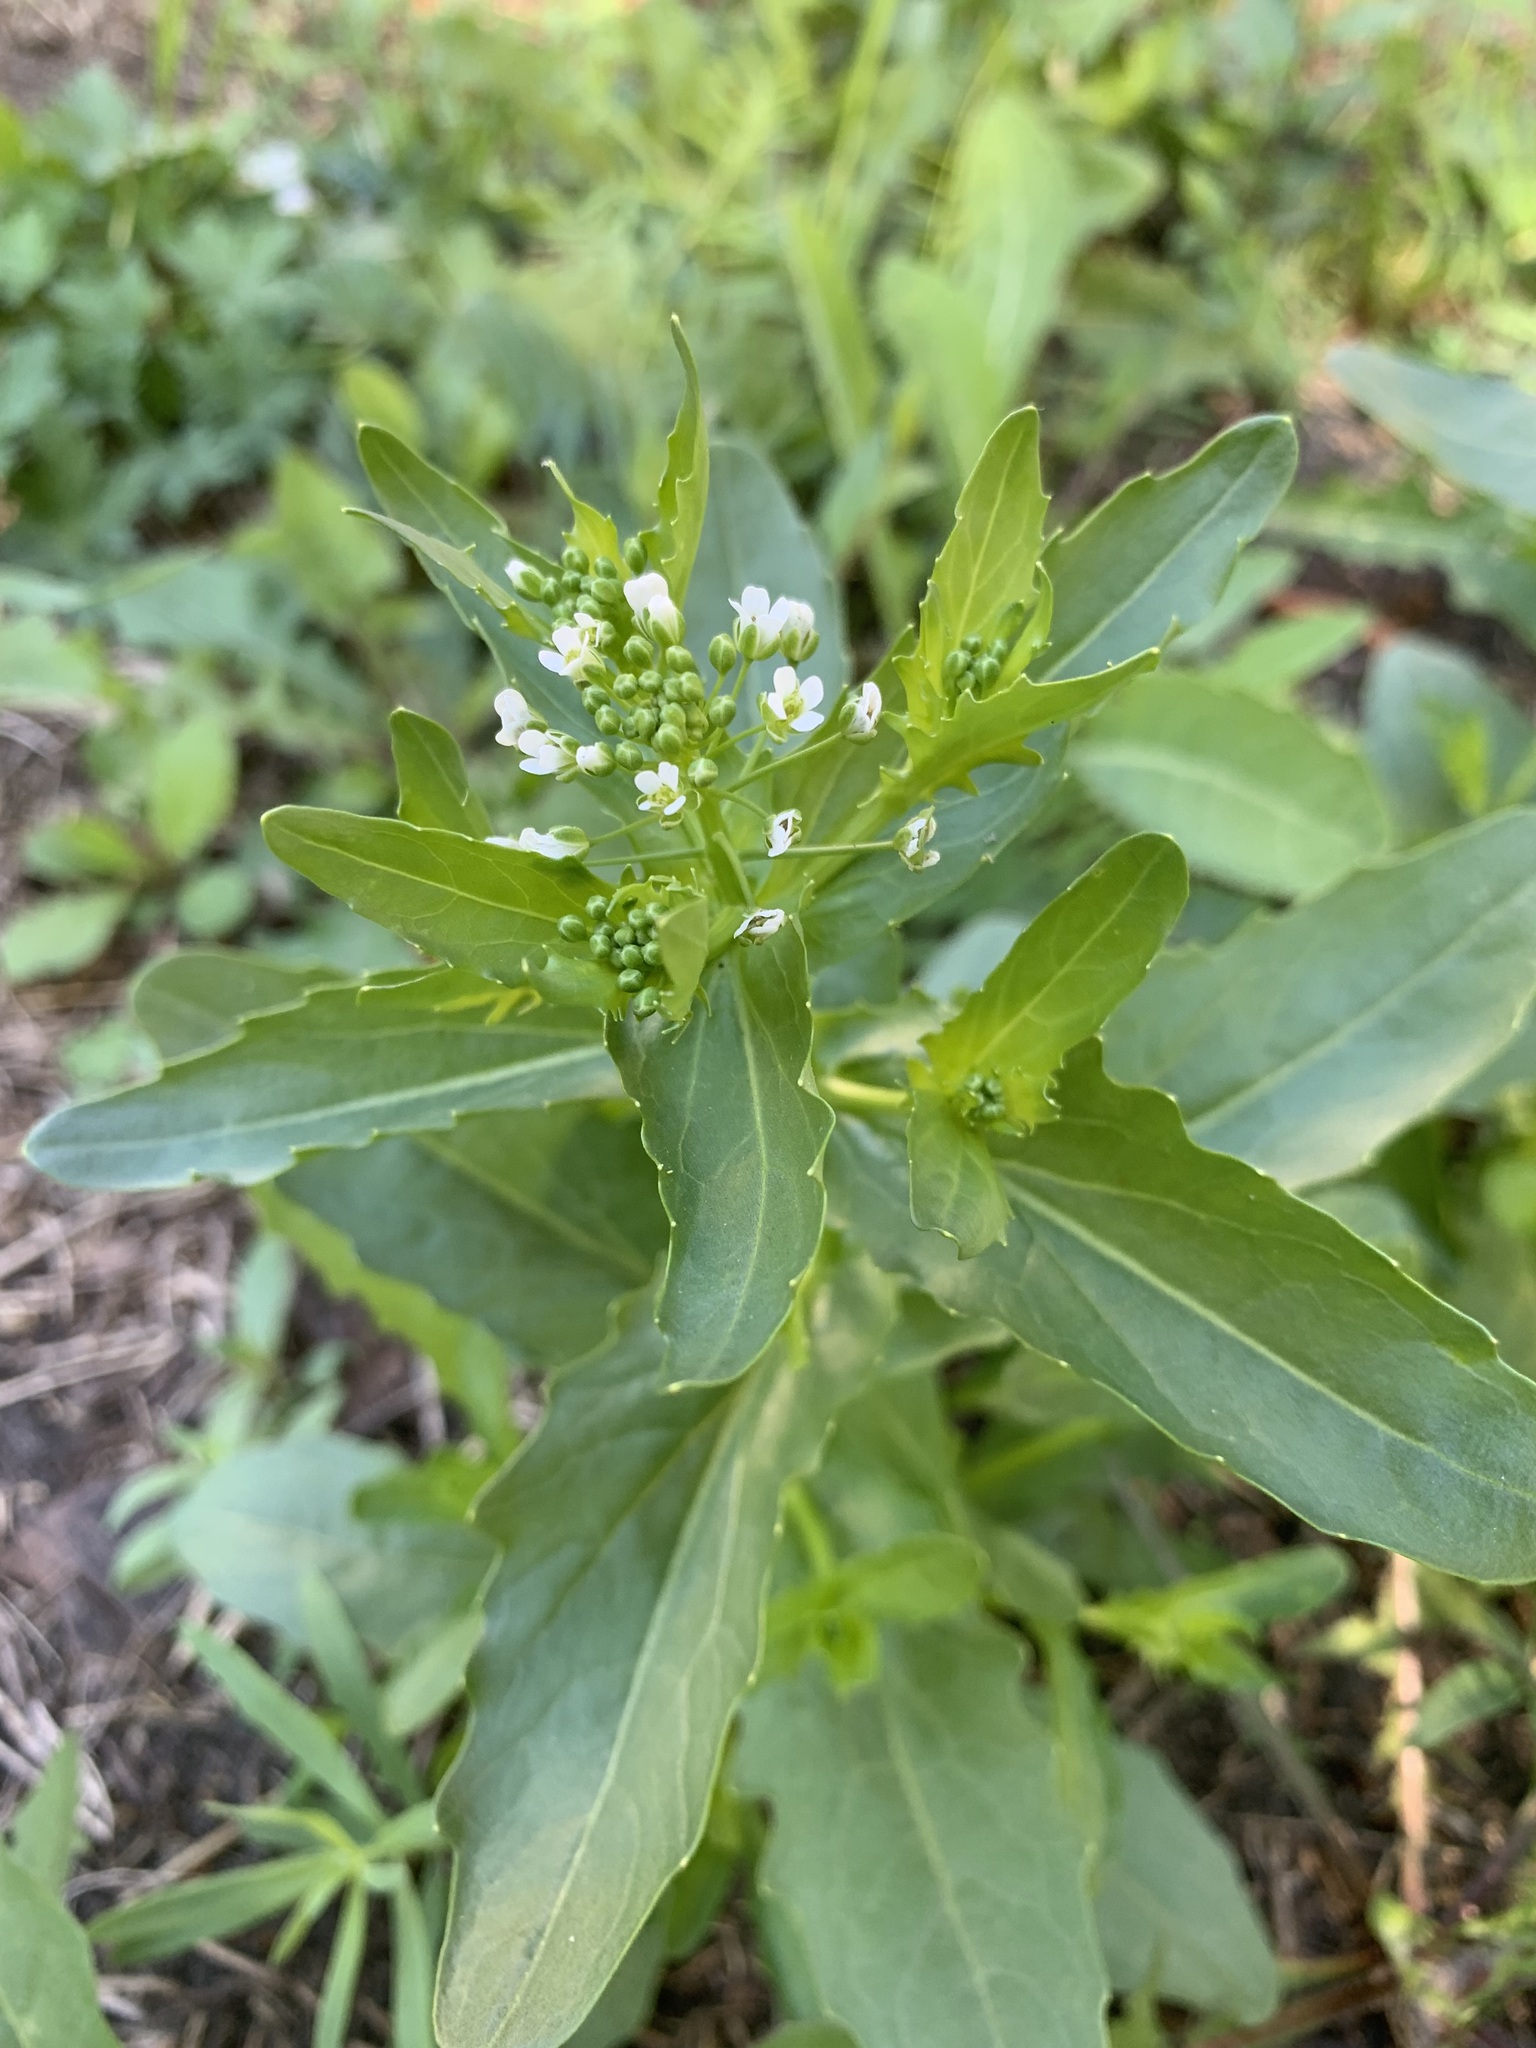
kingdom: Plantae
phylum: Tracheophyta
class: Magnoliopsida
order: Brassicales
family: Brassicaceae
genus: Thlaspi
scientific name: Thlaspi arvense
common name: Field pennycress
